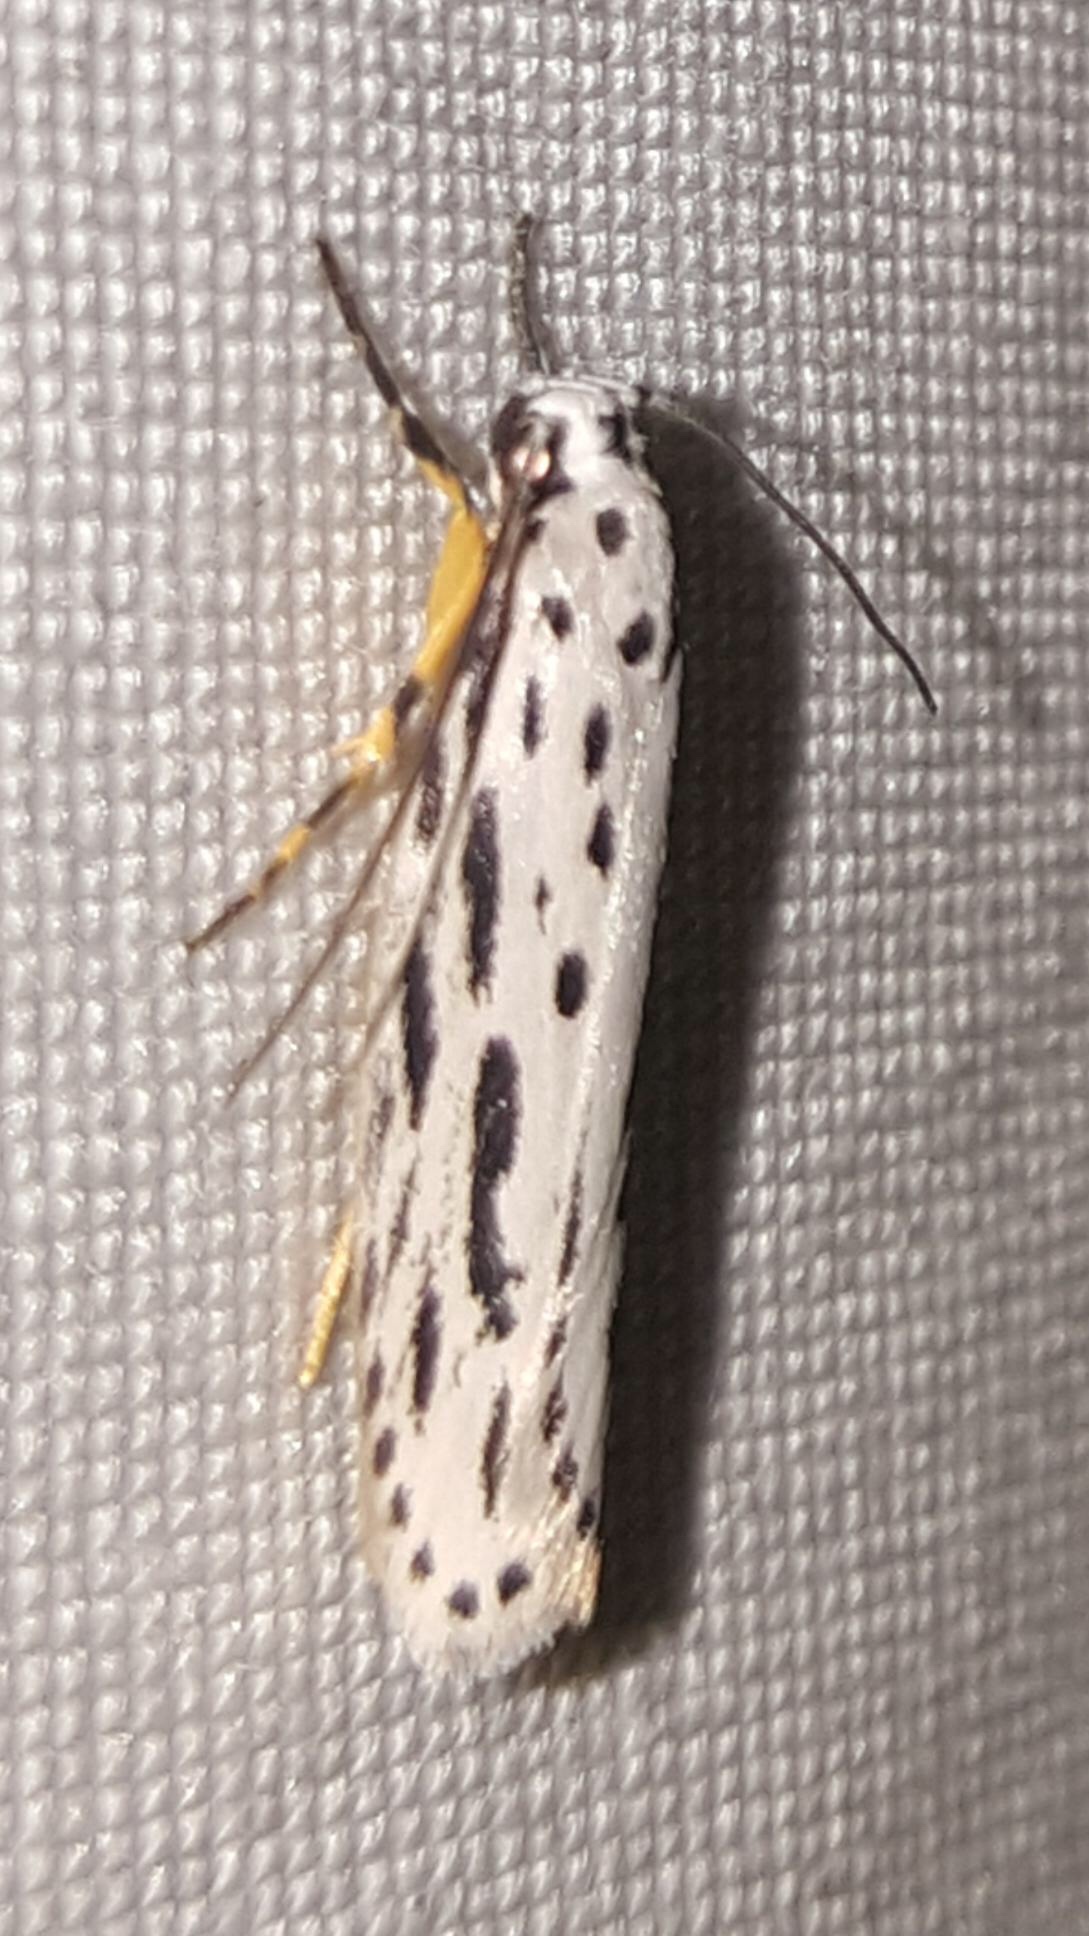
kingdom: Animalia
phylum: Arthropoda
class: Insecta
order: Lepidoptera
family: Ethmiidae
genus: Ethmia
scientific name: Ethmia zelleriella
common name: Zeller's ethmia
